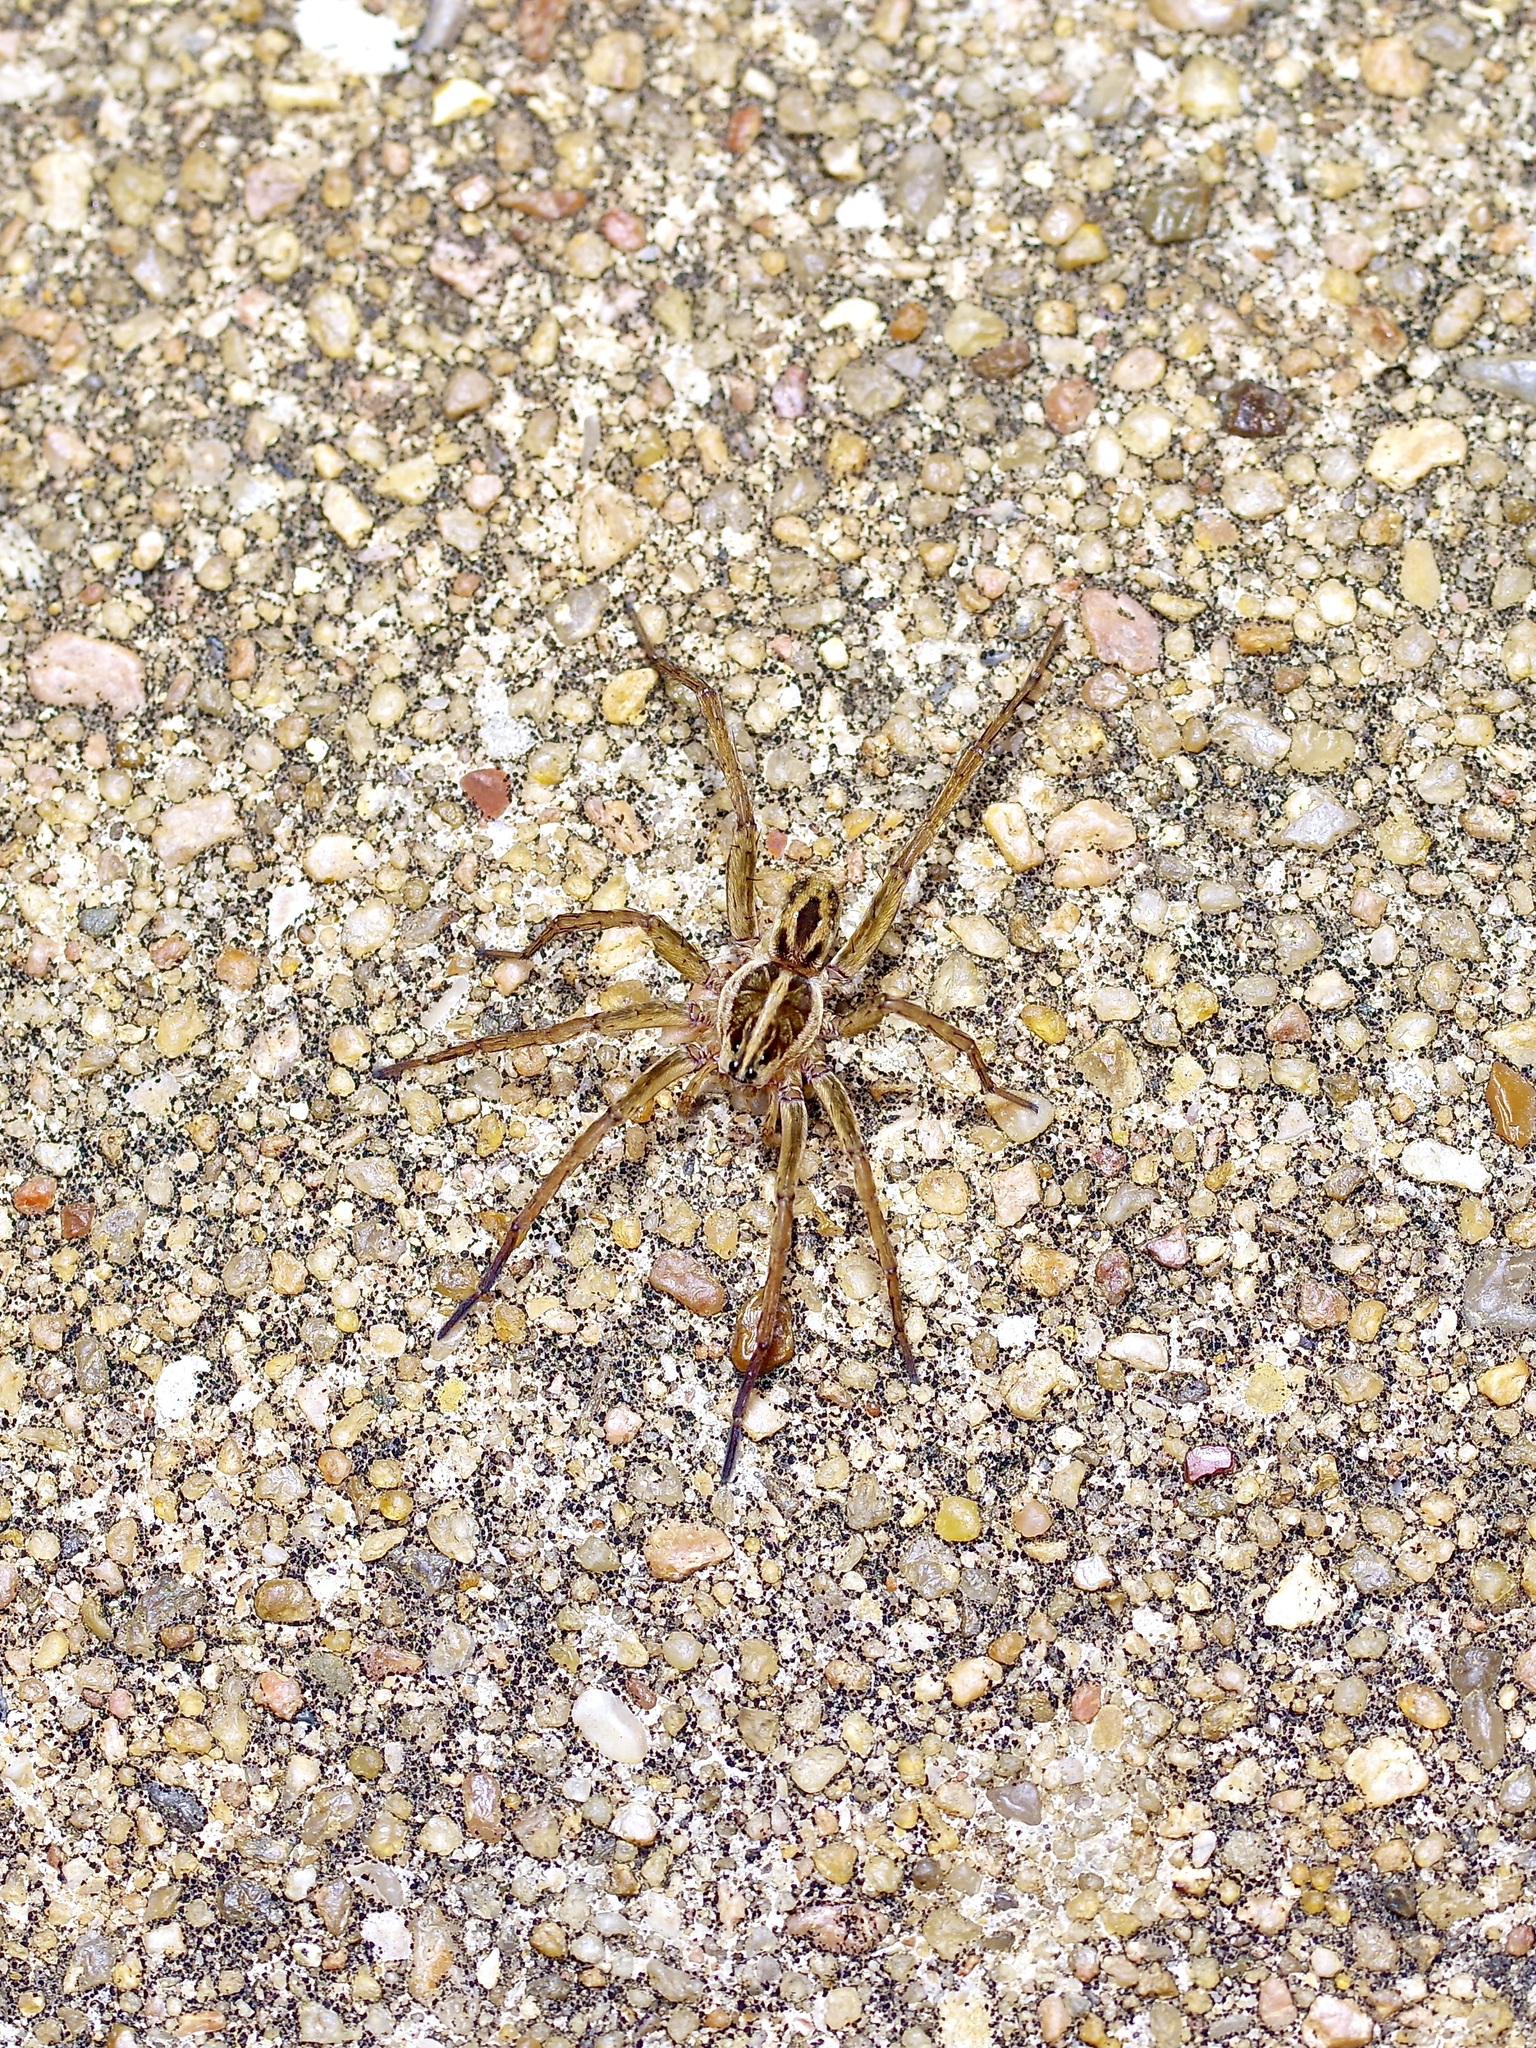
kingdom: Animalia
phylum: Arthropoda
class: Arachnida
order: Araneae
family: Lycosidae
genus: Tigrosa
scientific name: Tigrosa annexa
